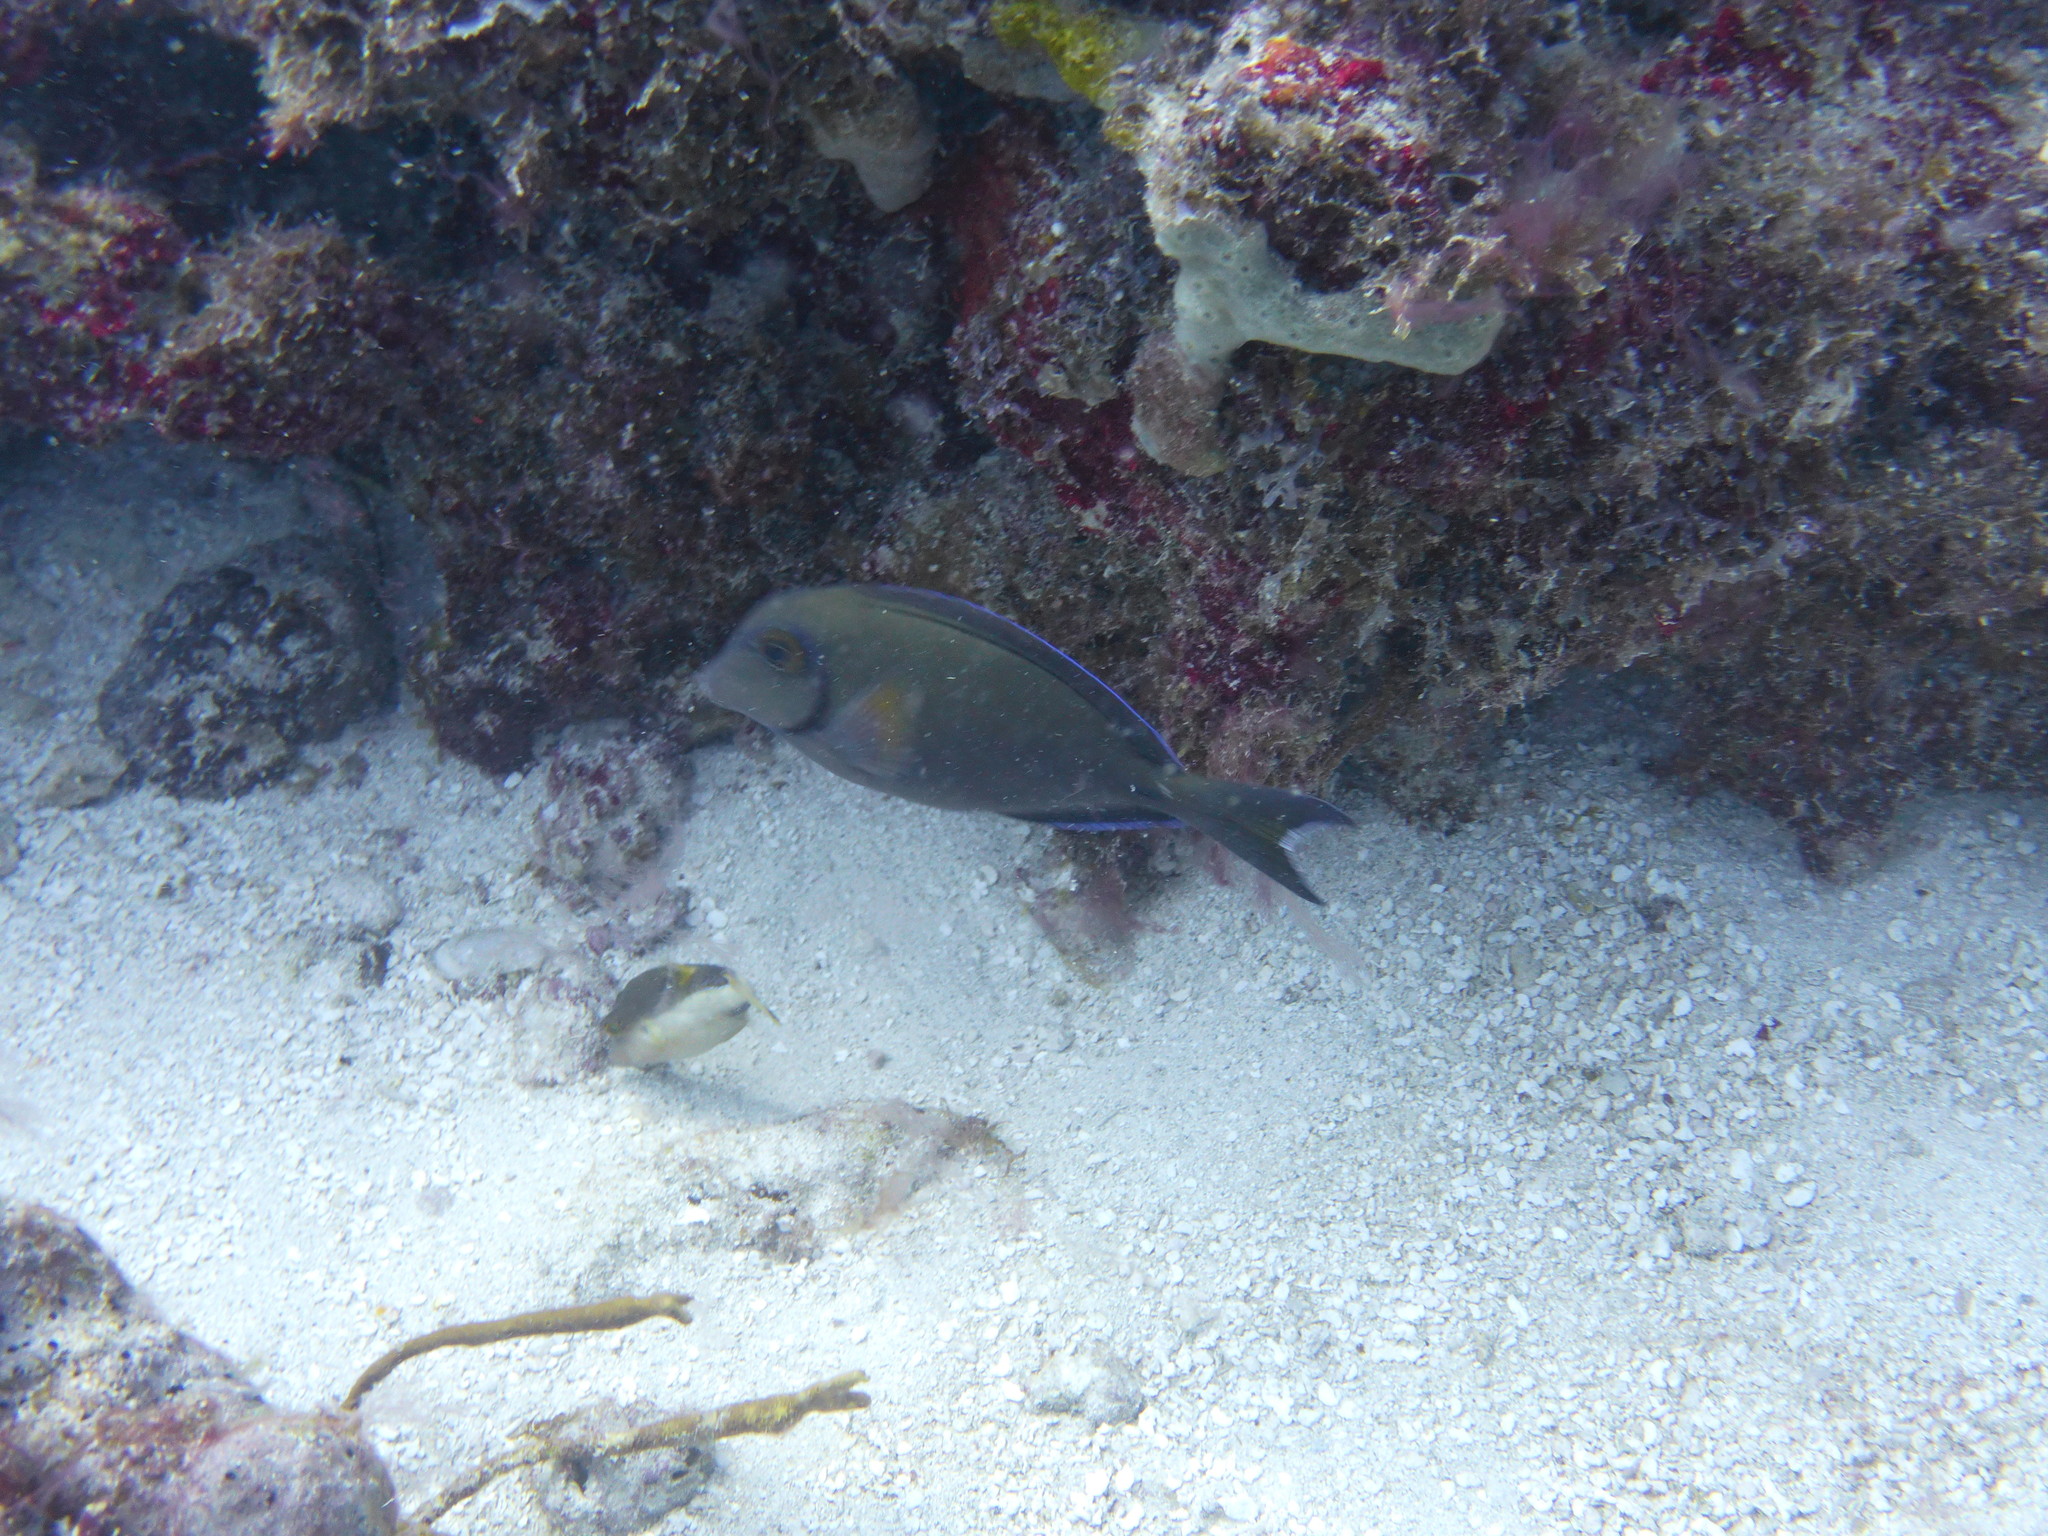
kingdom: Animalia
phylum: Chordata
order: Perciformes
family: Acanthuridae
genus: Acanthurus
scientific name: Acanthurus bahianus
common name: Ocean surgeon
